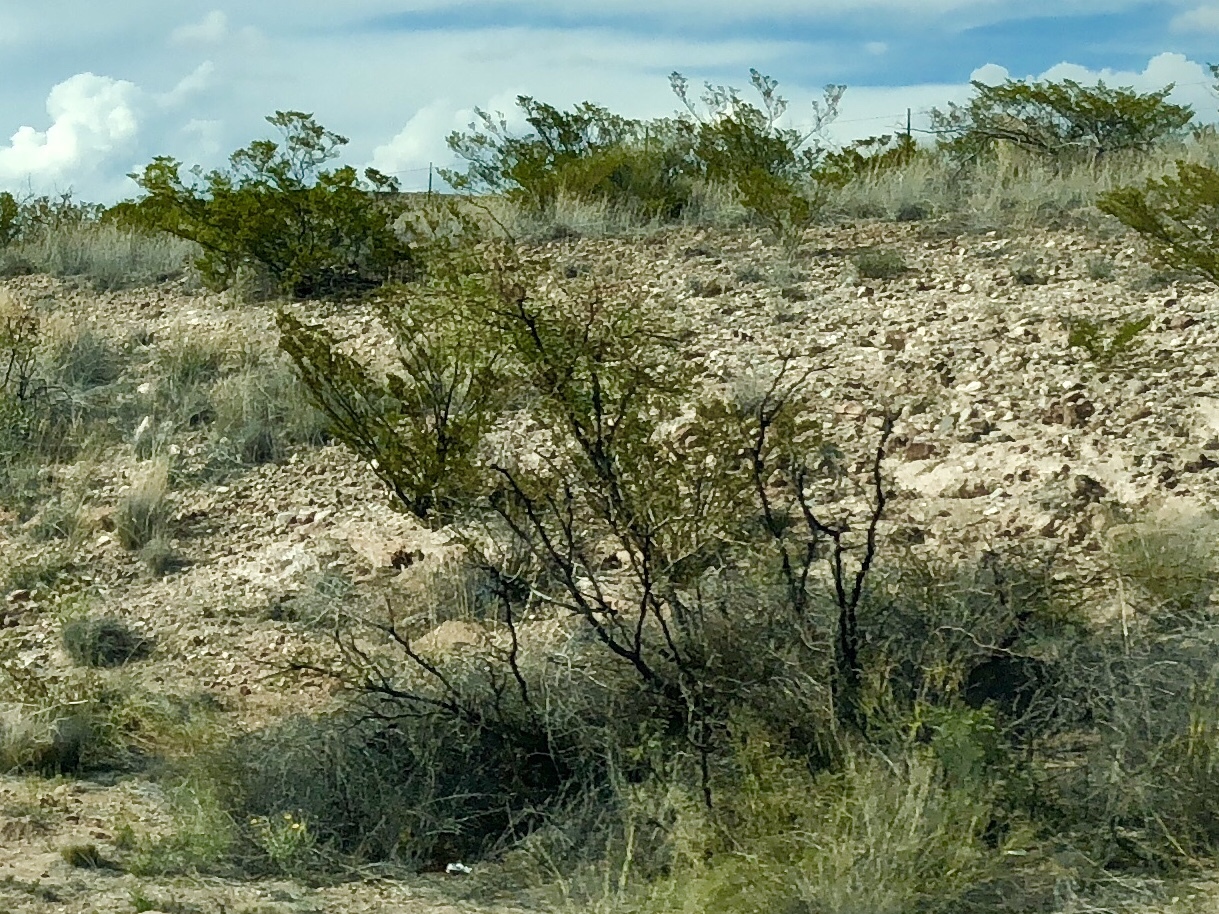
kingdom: Plantae
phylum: Tracheophyta
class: Magnoliopsida
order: Zygophyllales
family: Zygophyllaceae
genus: Larrea
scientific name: Larrea tridentata
